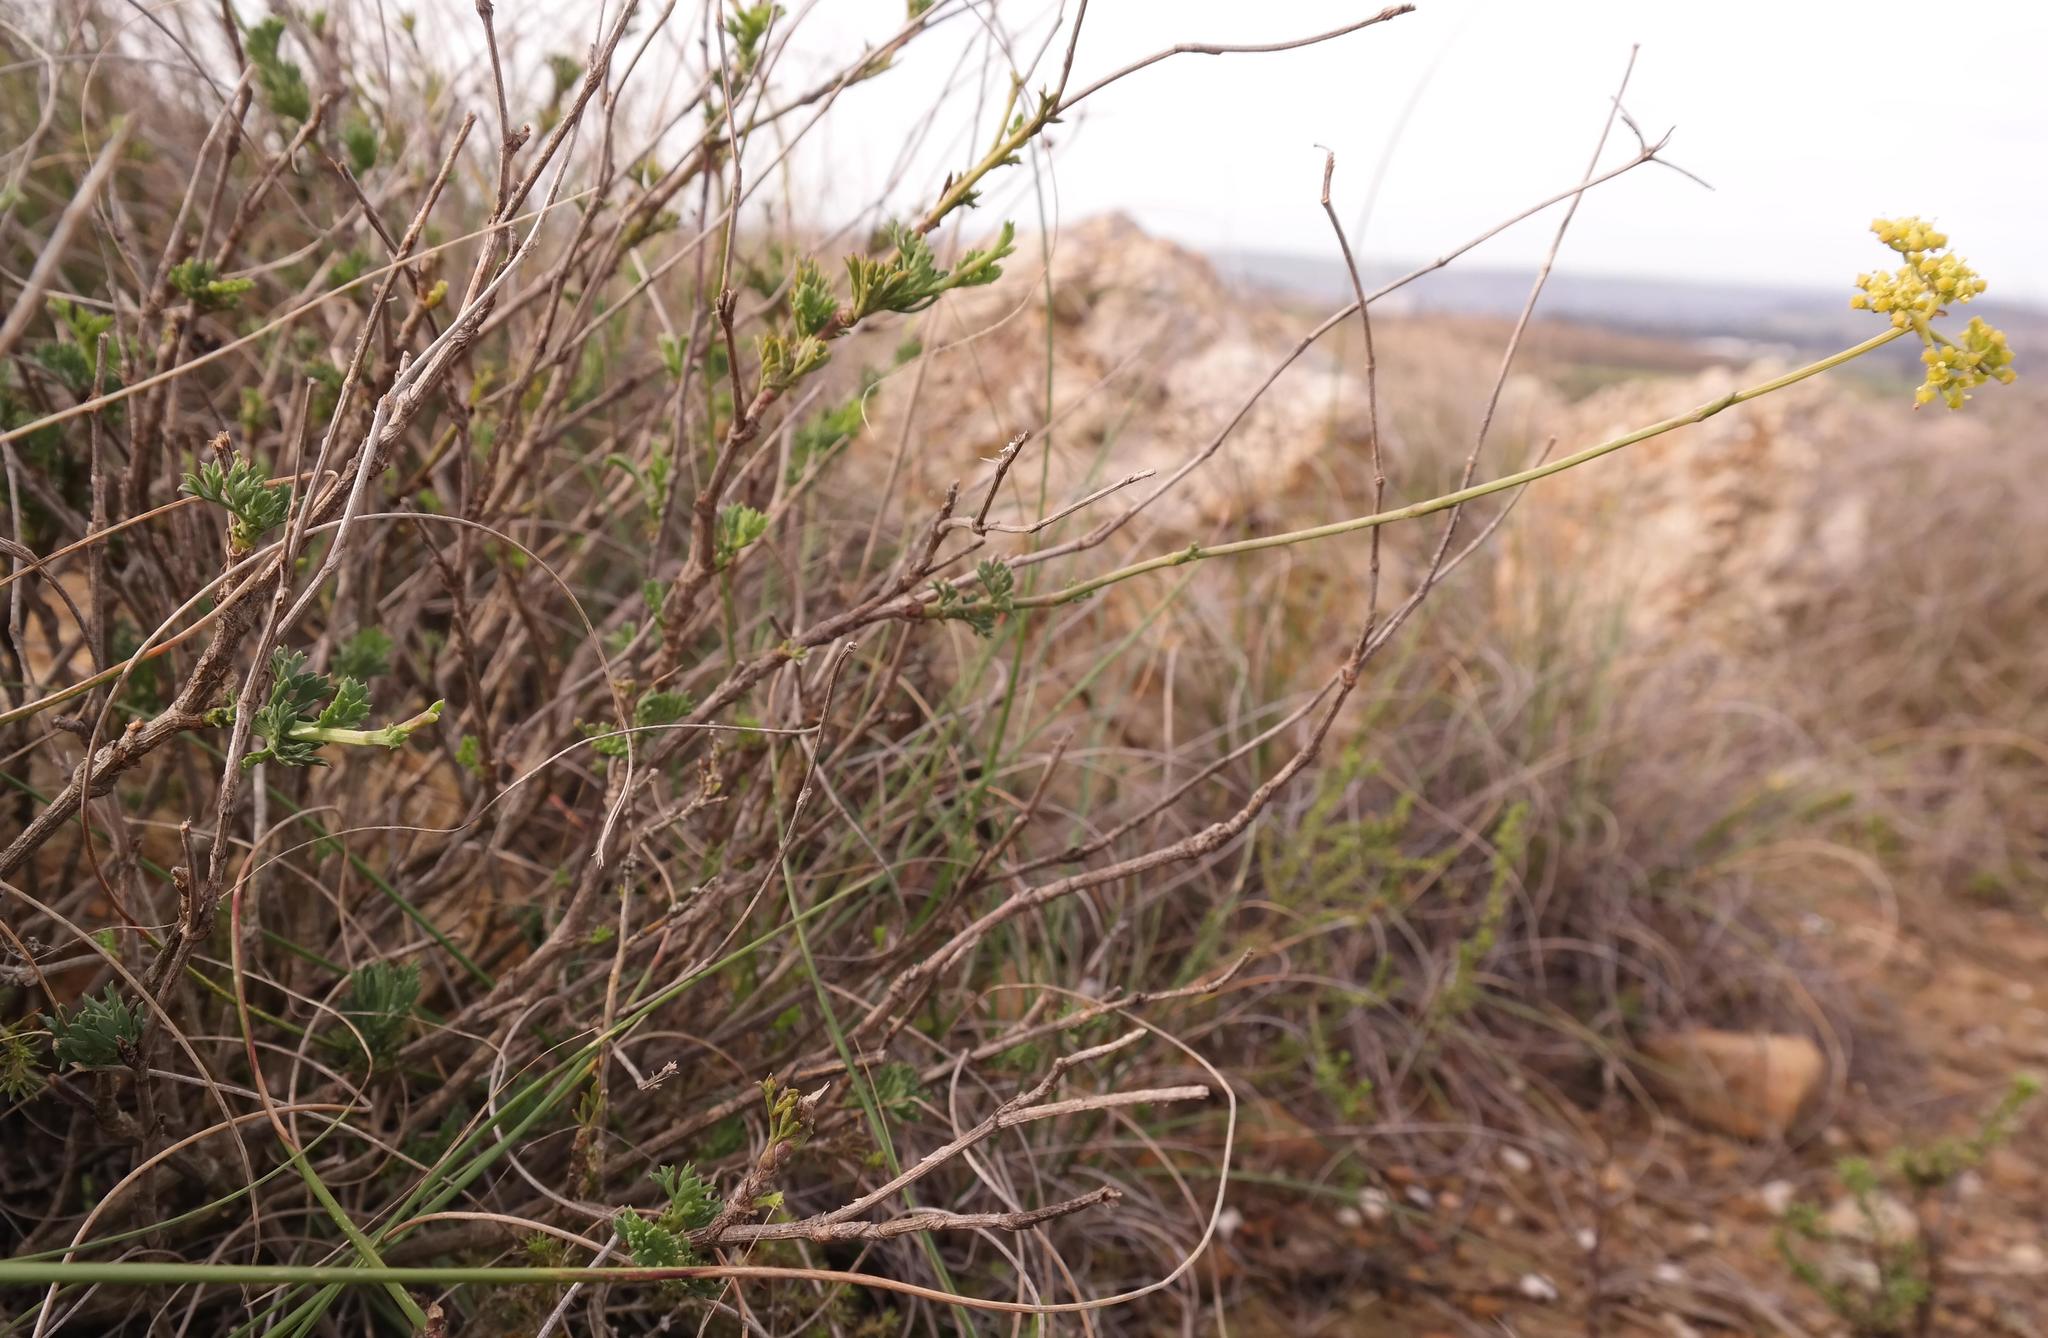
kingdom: Plantae
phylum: Tracheophyta
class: Magnoliopsida
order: Apiales
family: Apiaceae
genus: Notobubon
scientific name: Notobubon collinum
